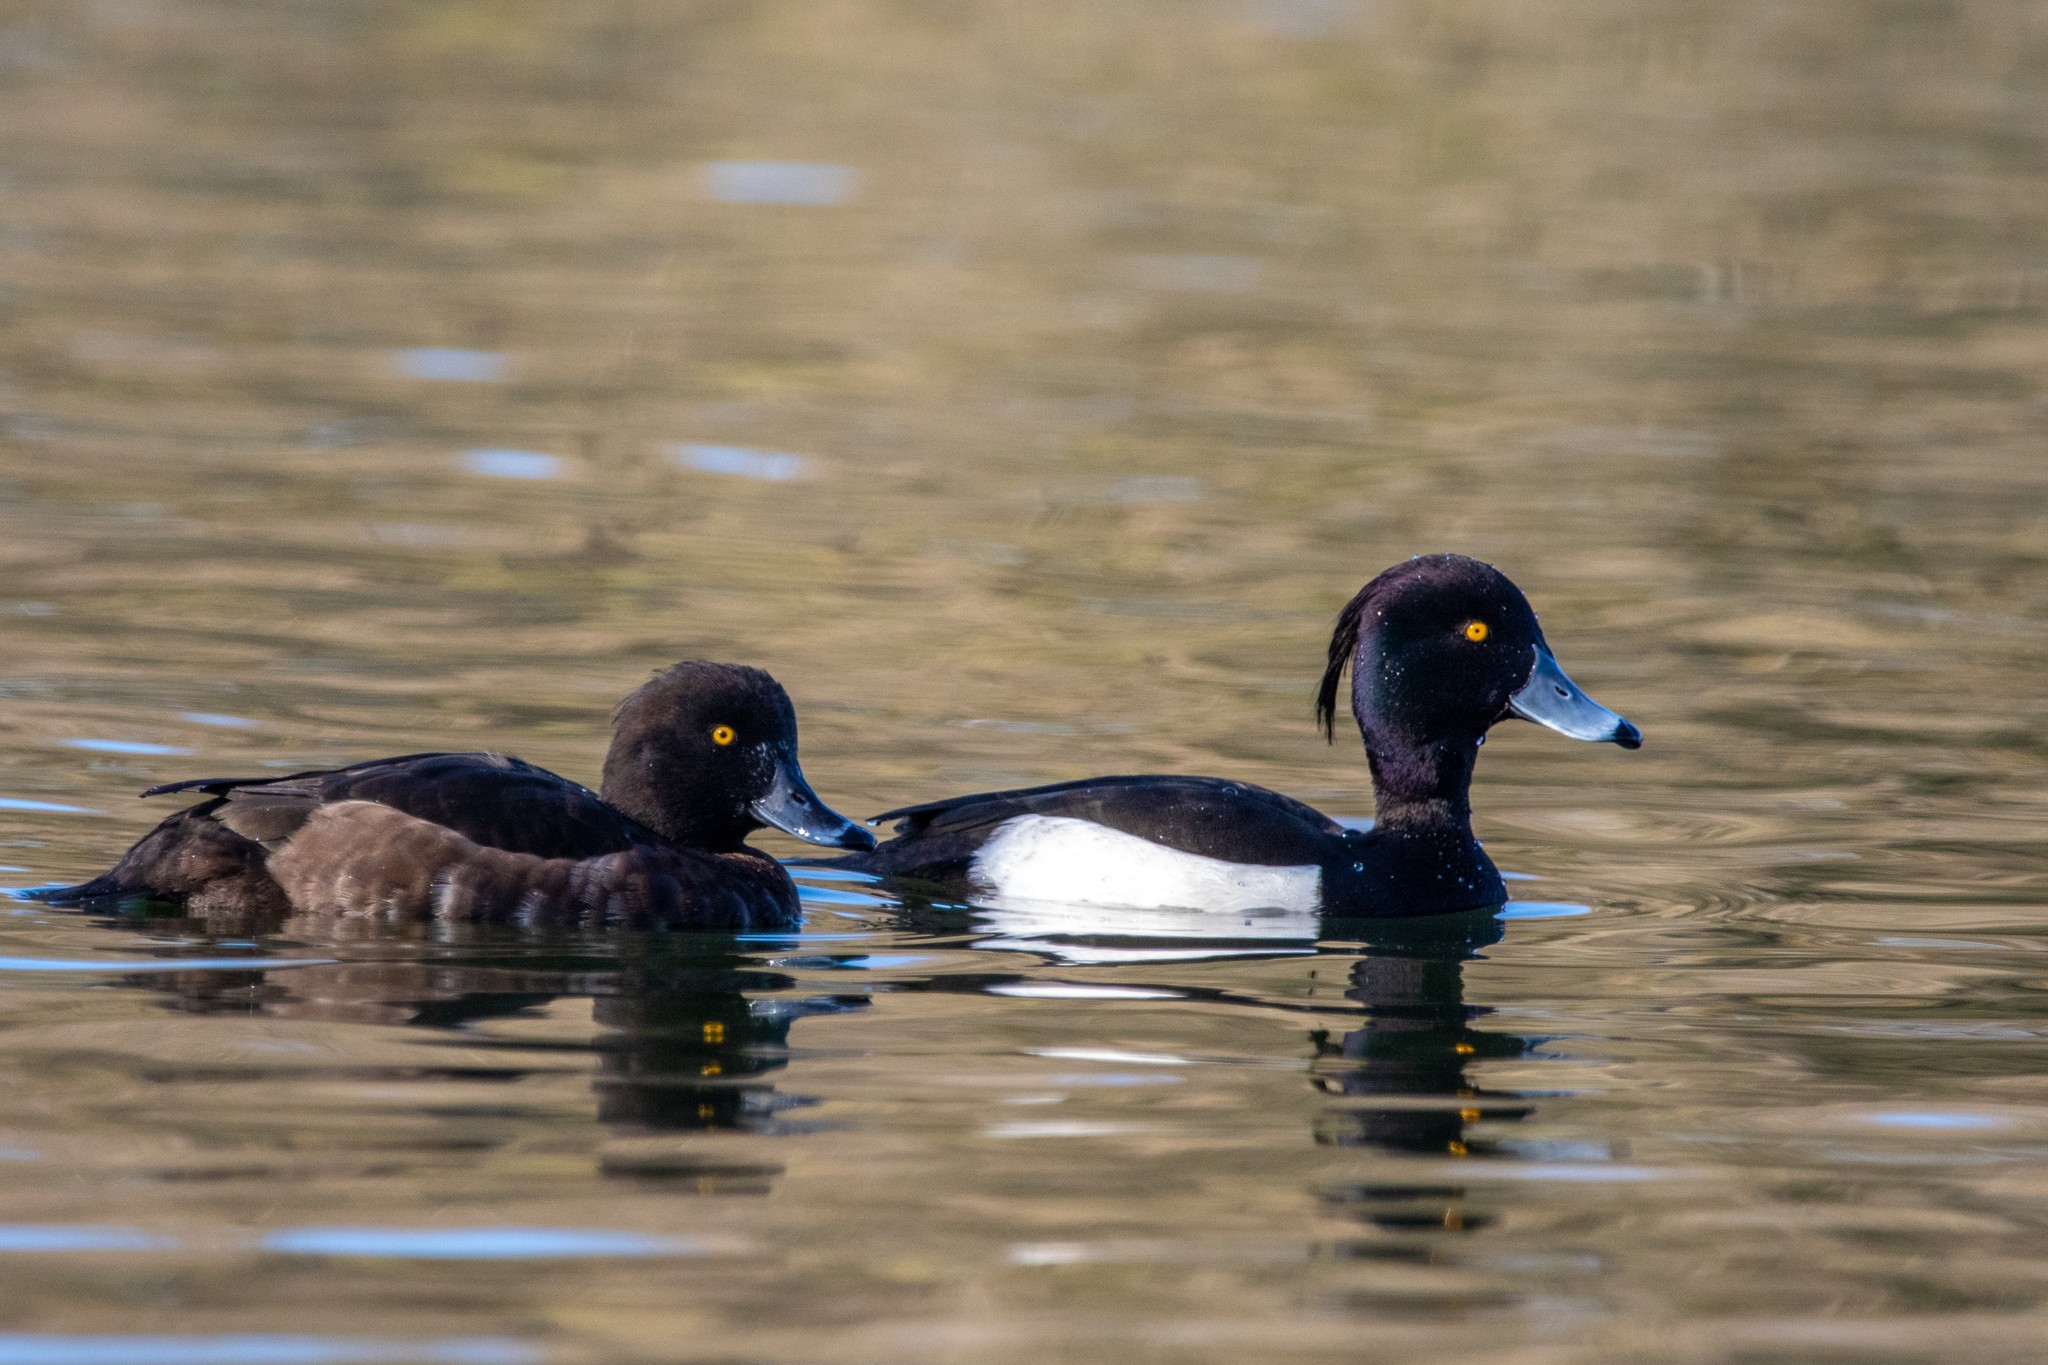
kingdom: Animalia
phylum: Chordata
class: Aves
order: Anseriformes
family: Anatidae
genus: Aythya
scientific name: Aythya fuligula
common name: Tufted duck
